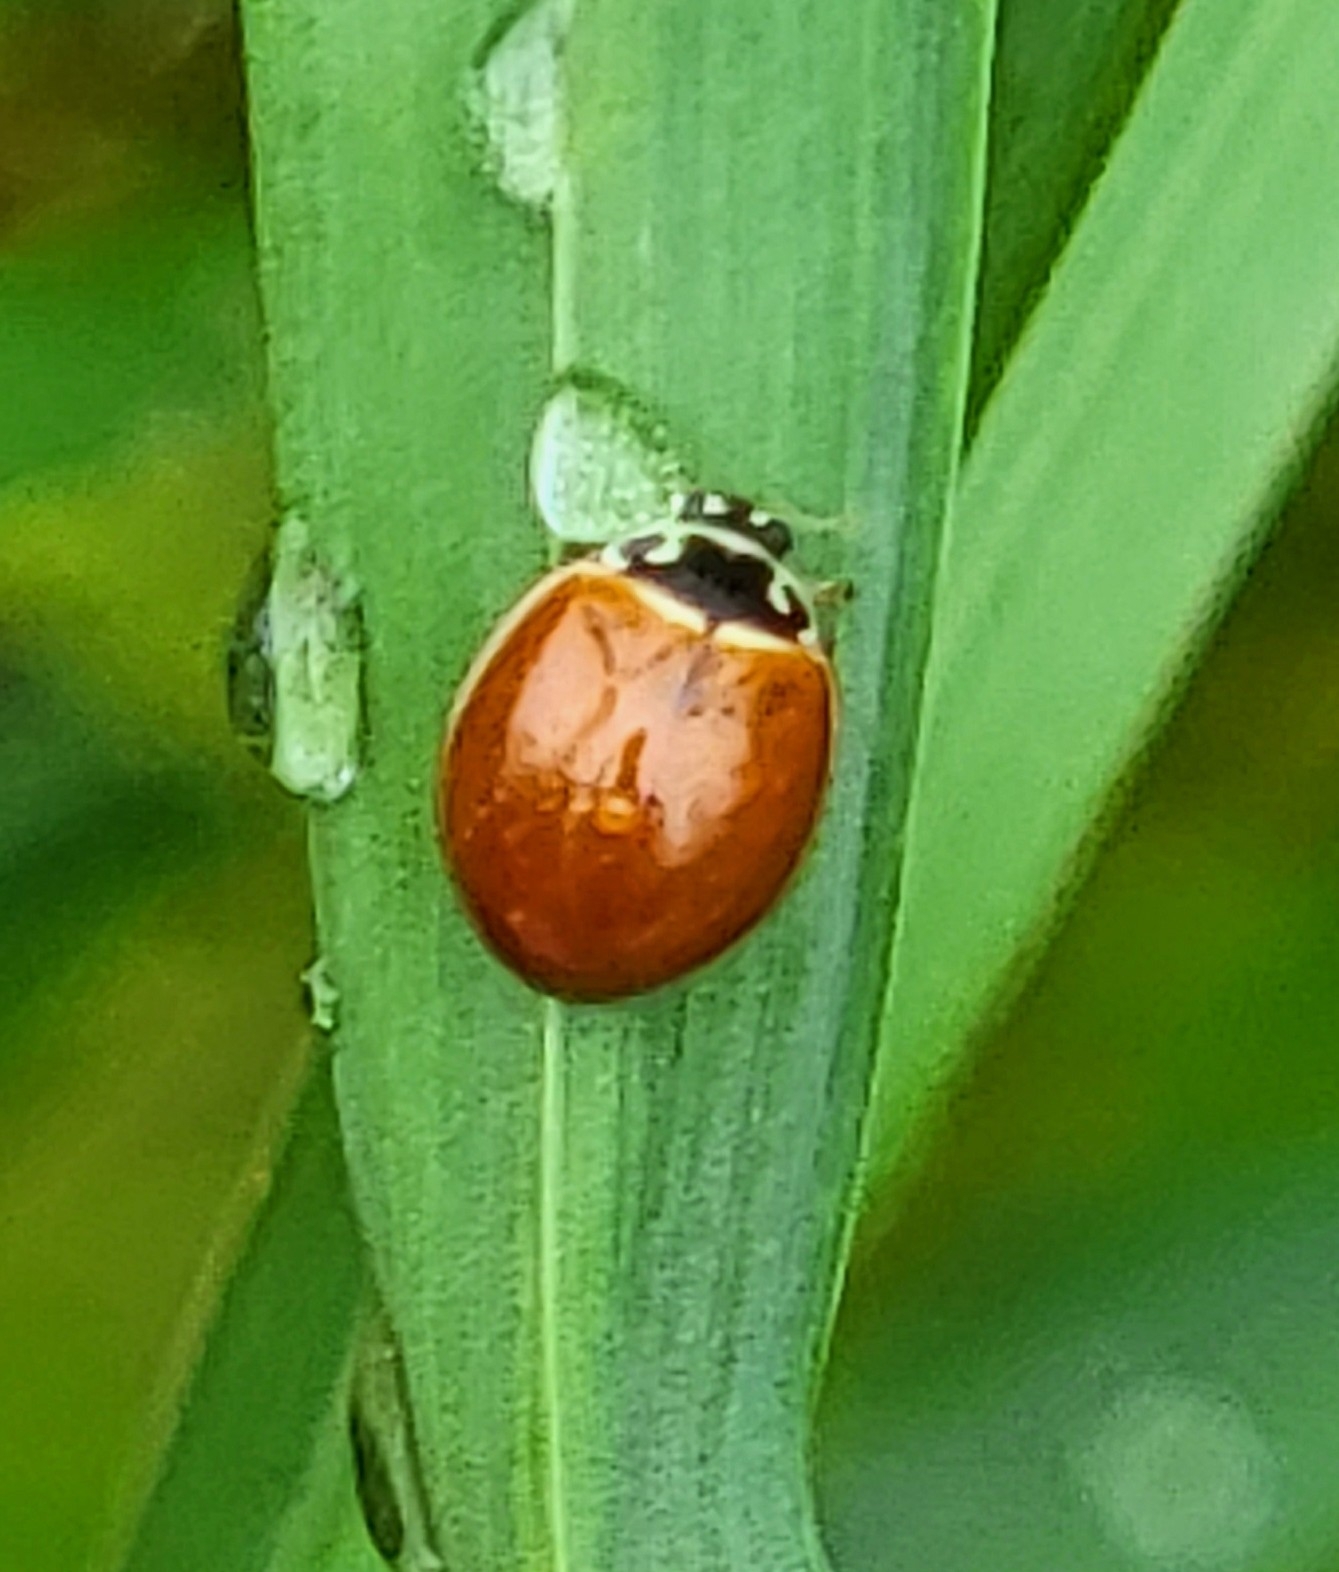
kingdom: Animalia
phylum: Arthropoda
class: Insecta
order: Coleoptera
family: Coccinellidae
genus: Cycloneda
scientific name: Cycloneda munda
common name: Polished lady beetle
